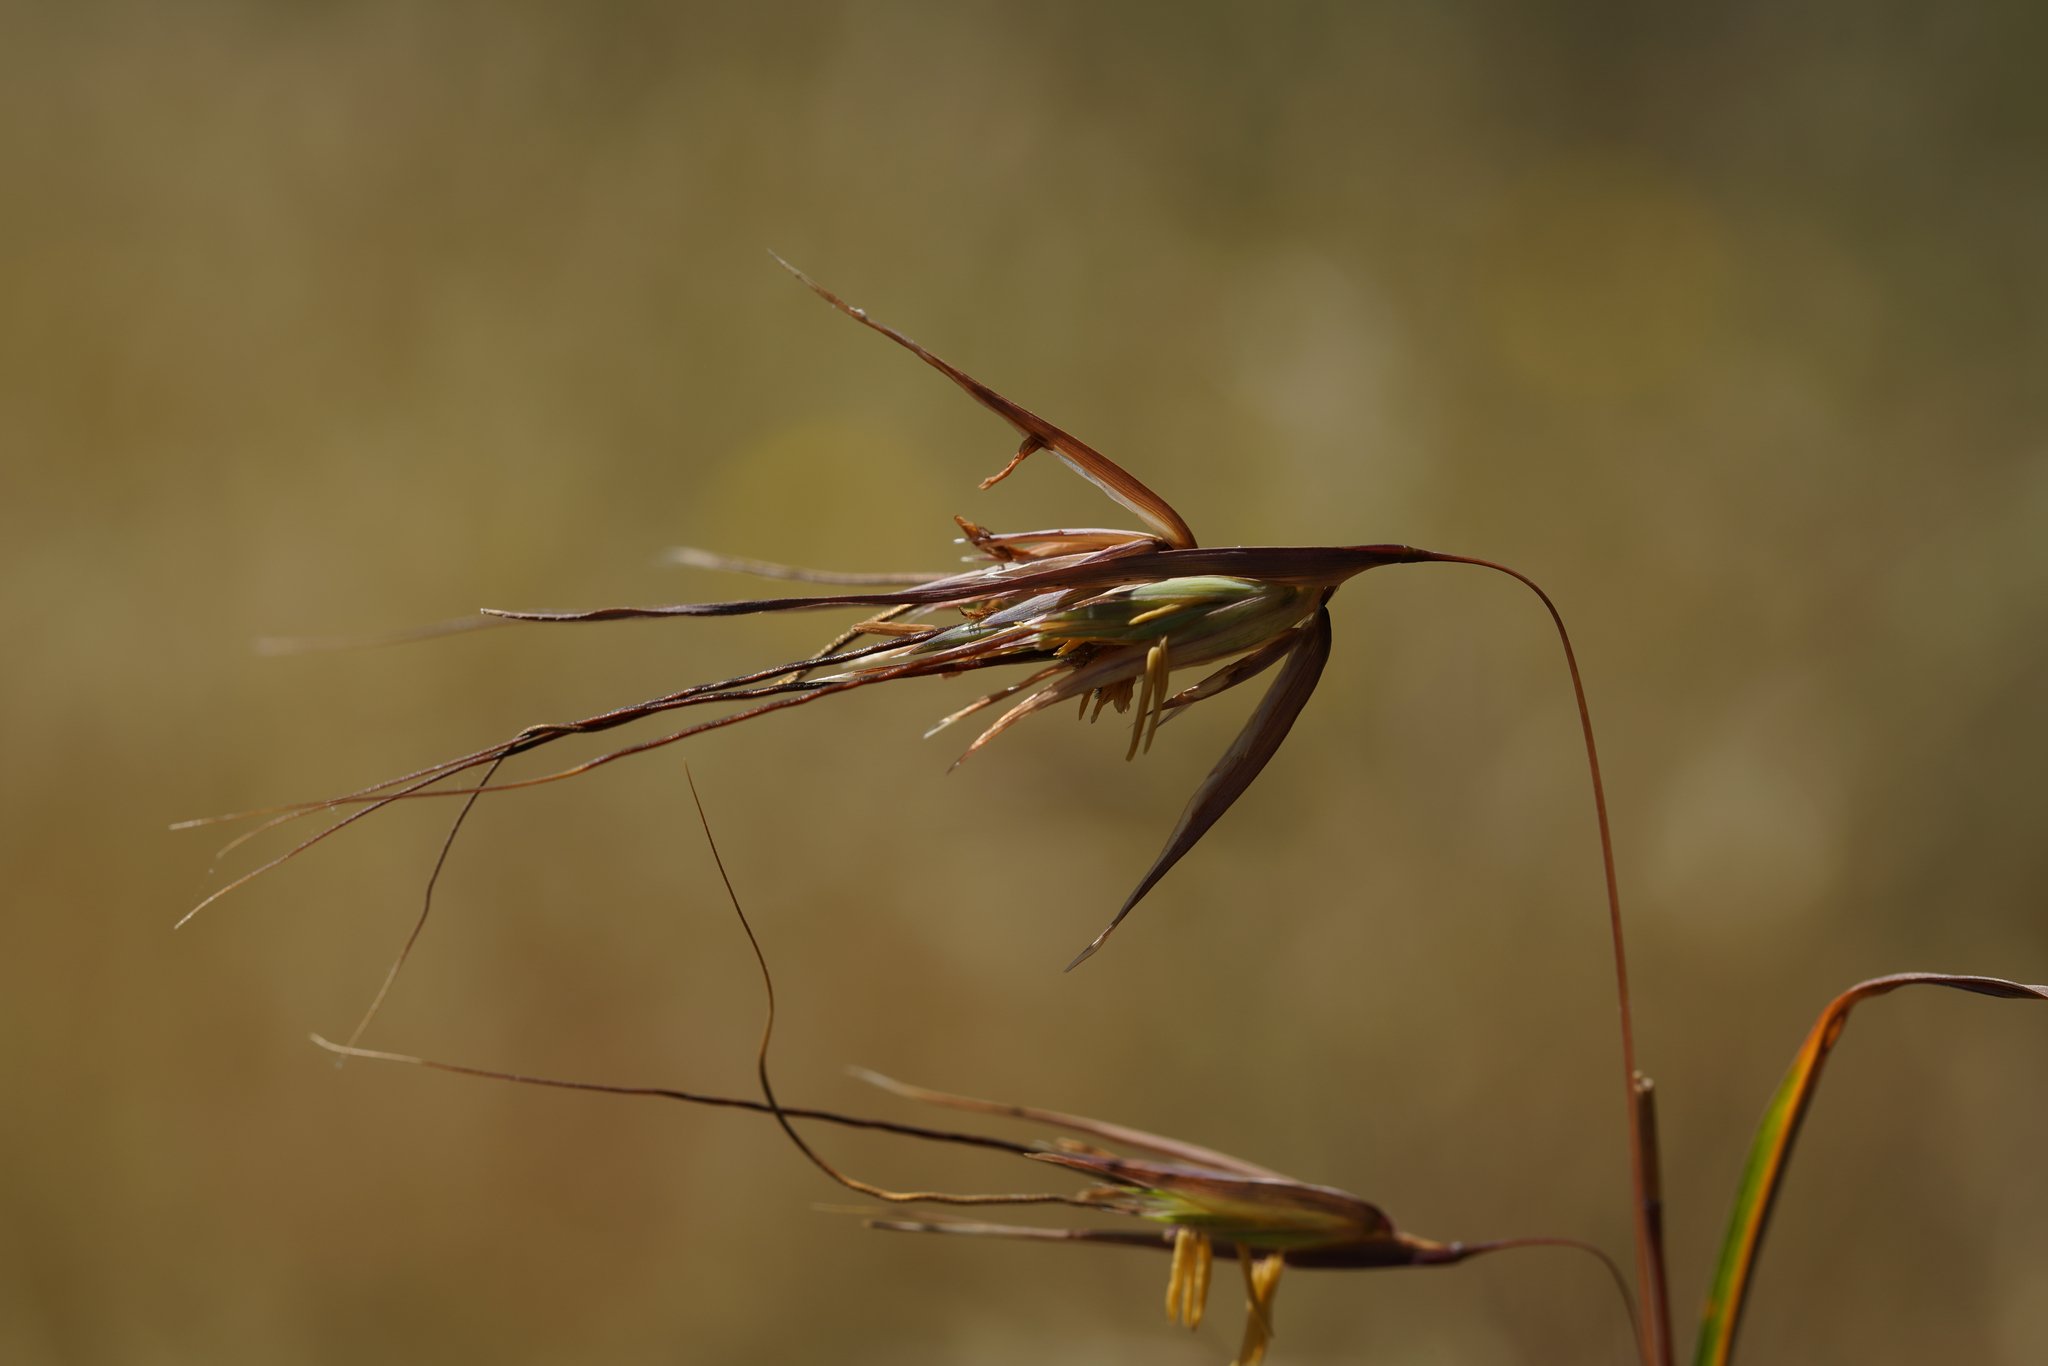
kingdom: Plantae
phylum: Tracheophyta
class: Liliopsida
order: Poales
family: Poaceae
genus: Themeda
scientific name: Themeda triandra
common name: Kangaroo grass
